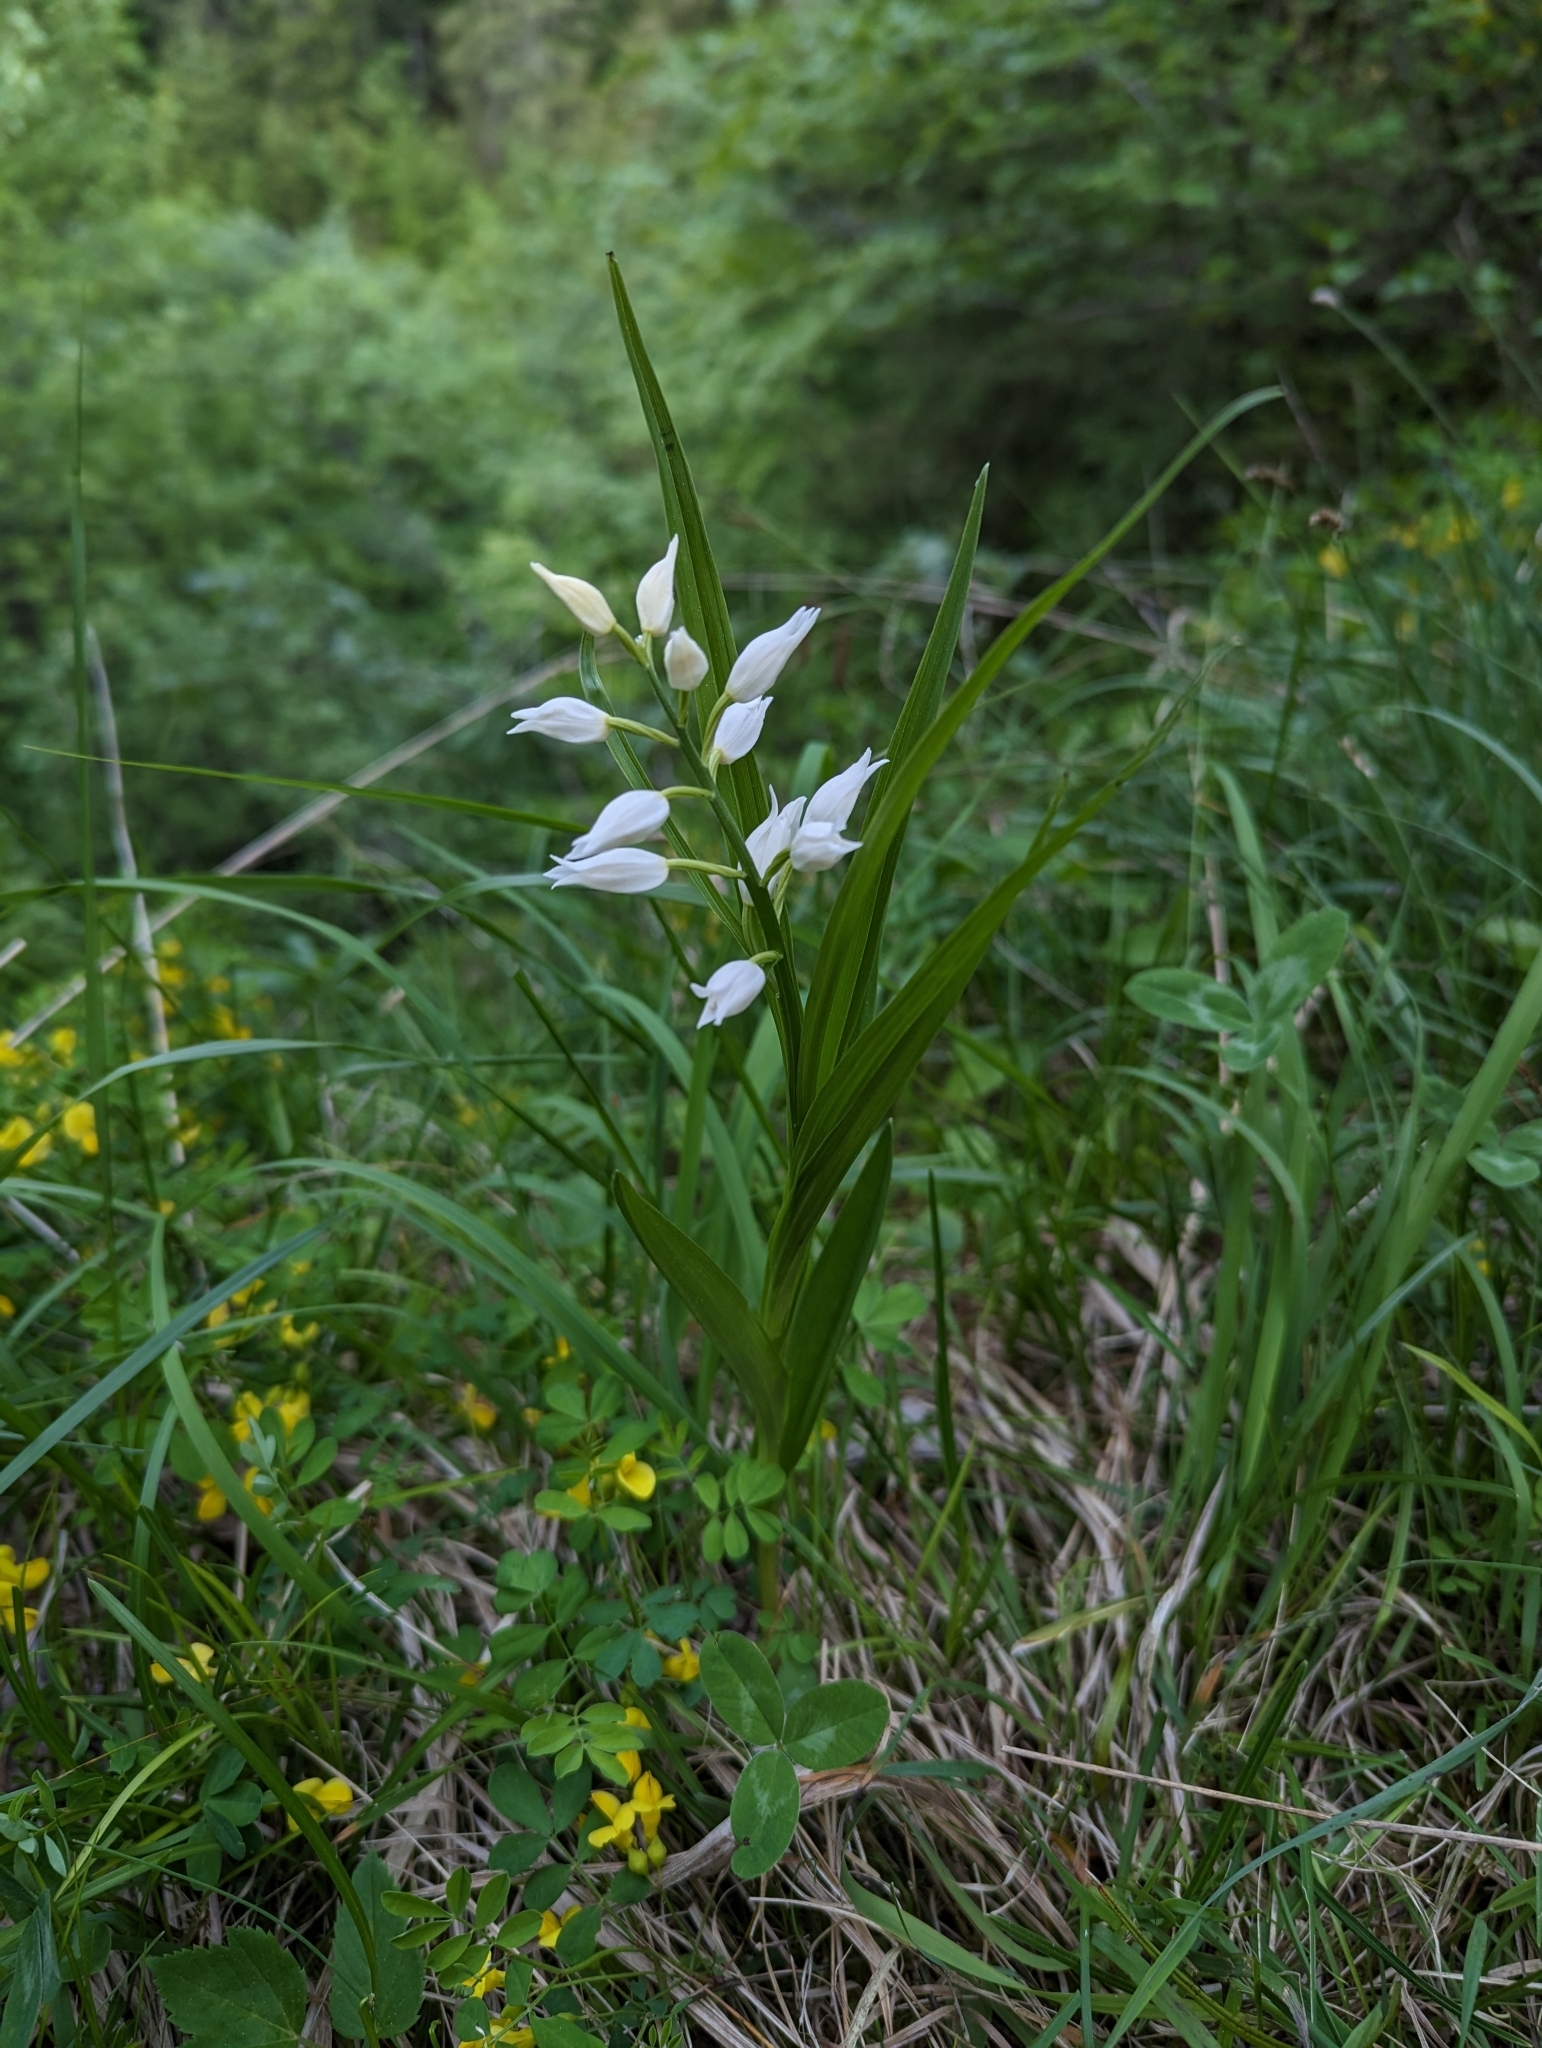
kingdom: Plantae
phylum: Tracheophyta
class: Liliopsida
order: Asparagales
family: Orchidaceae
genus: Cephalanthera
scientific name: Cephalanthera longifolia
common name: Narrow-leaved helleborine
